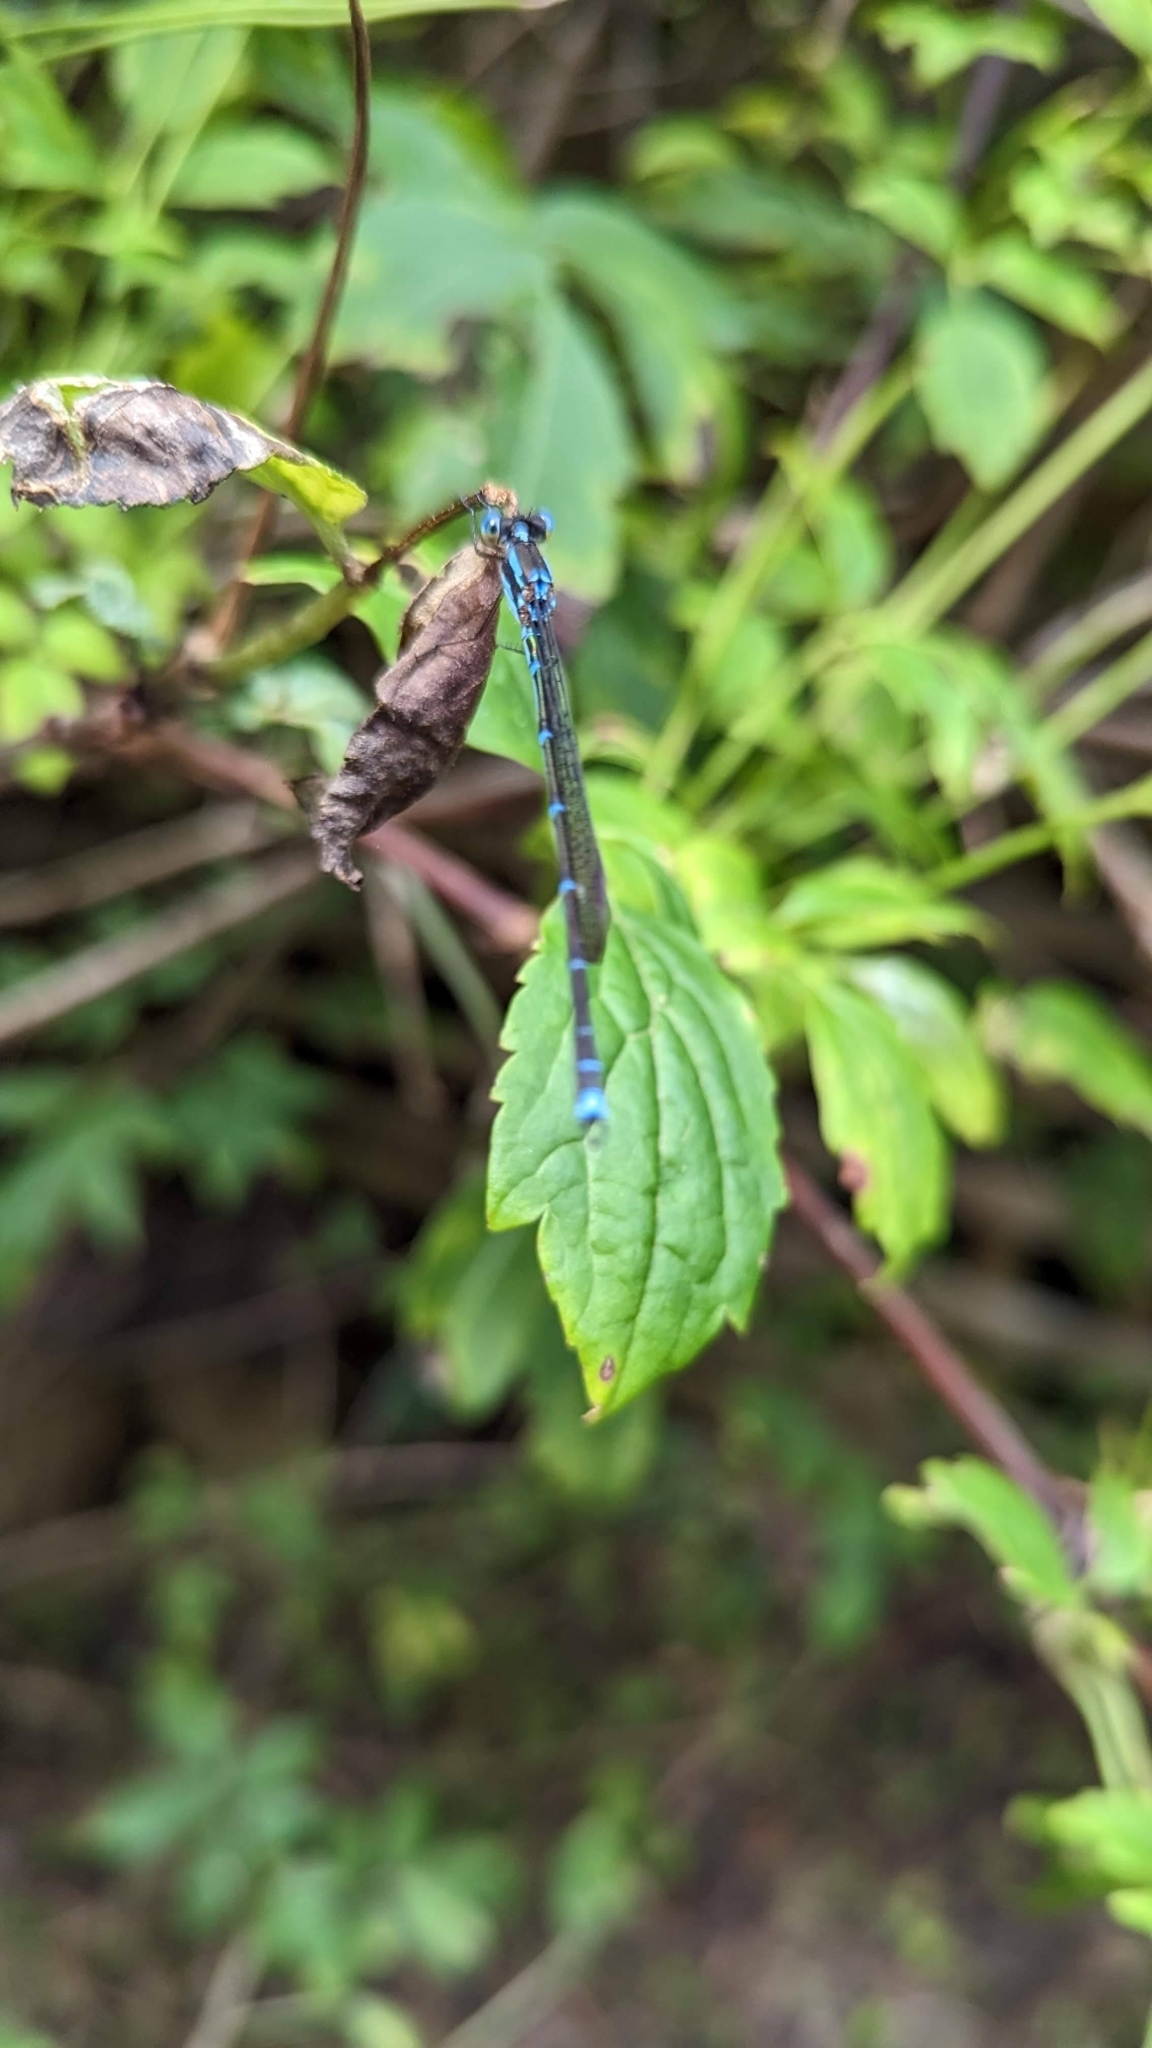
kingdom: Animalia
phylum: Arthropoda
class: Insecta
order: Odonata
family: Lestidae
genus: Austrolestes
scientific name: Austrolestes colensonis
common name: Blue damselfly
